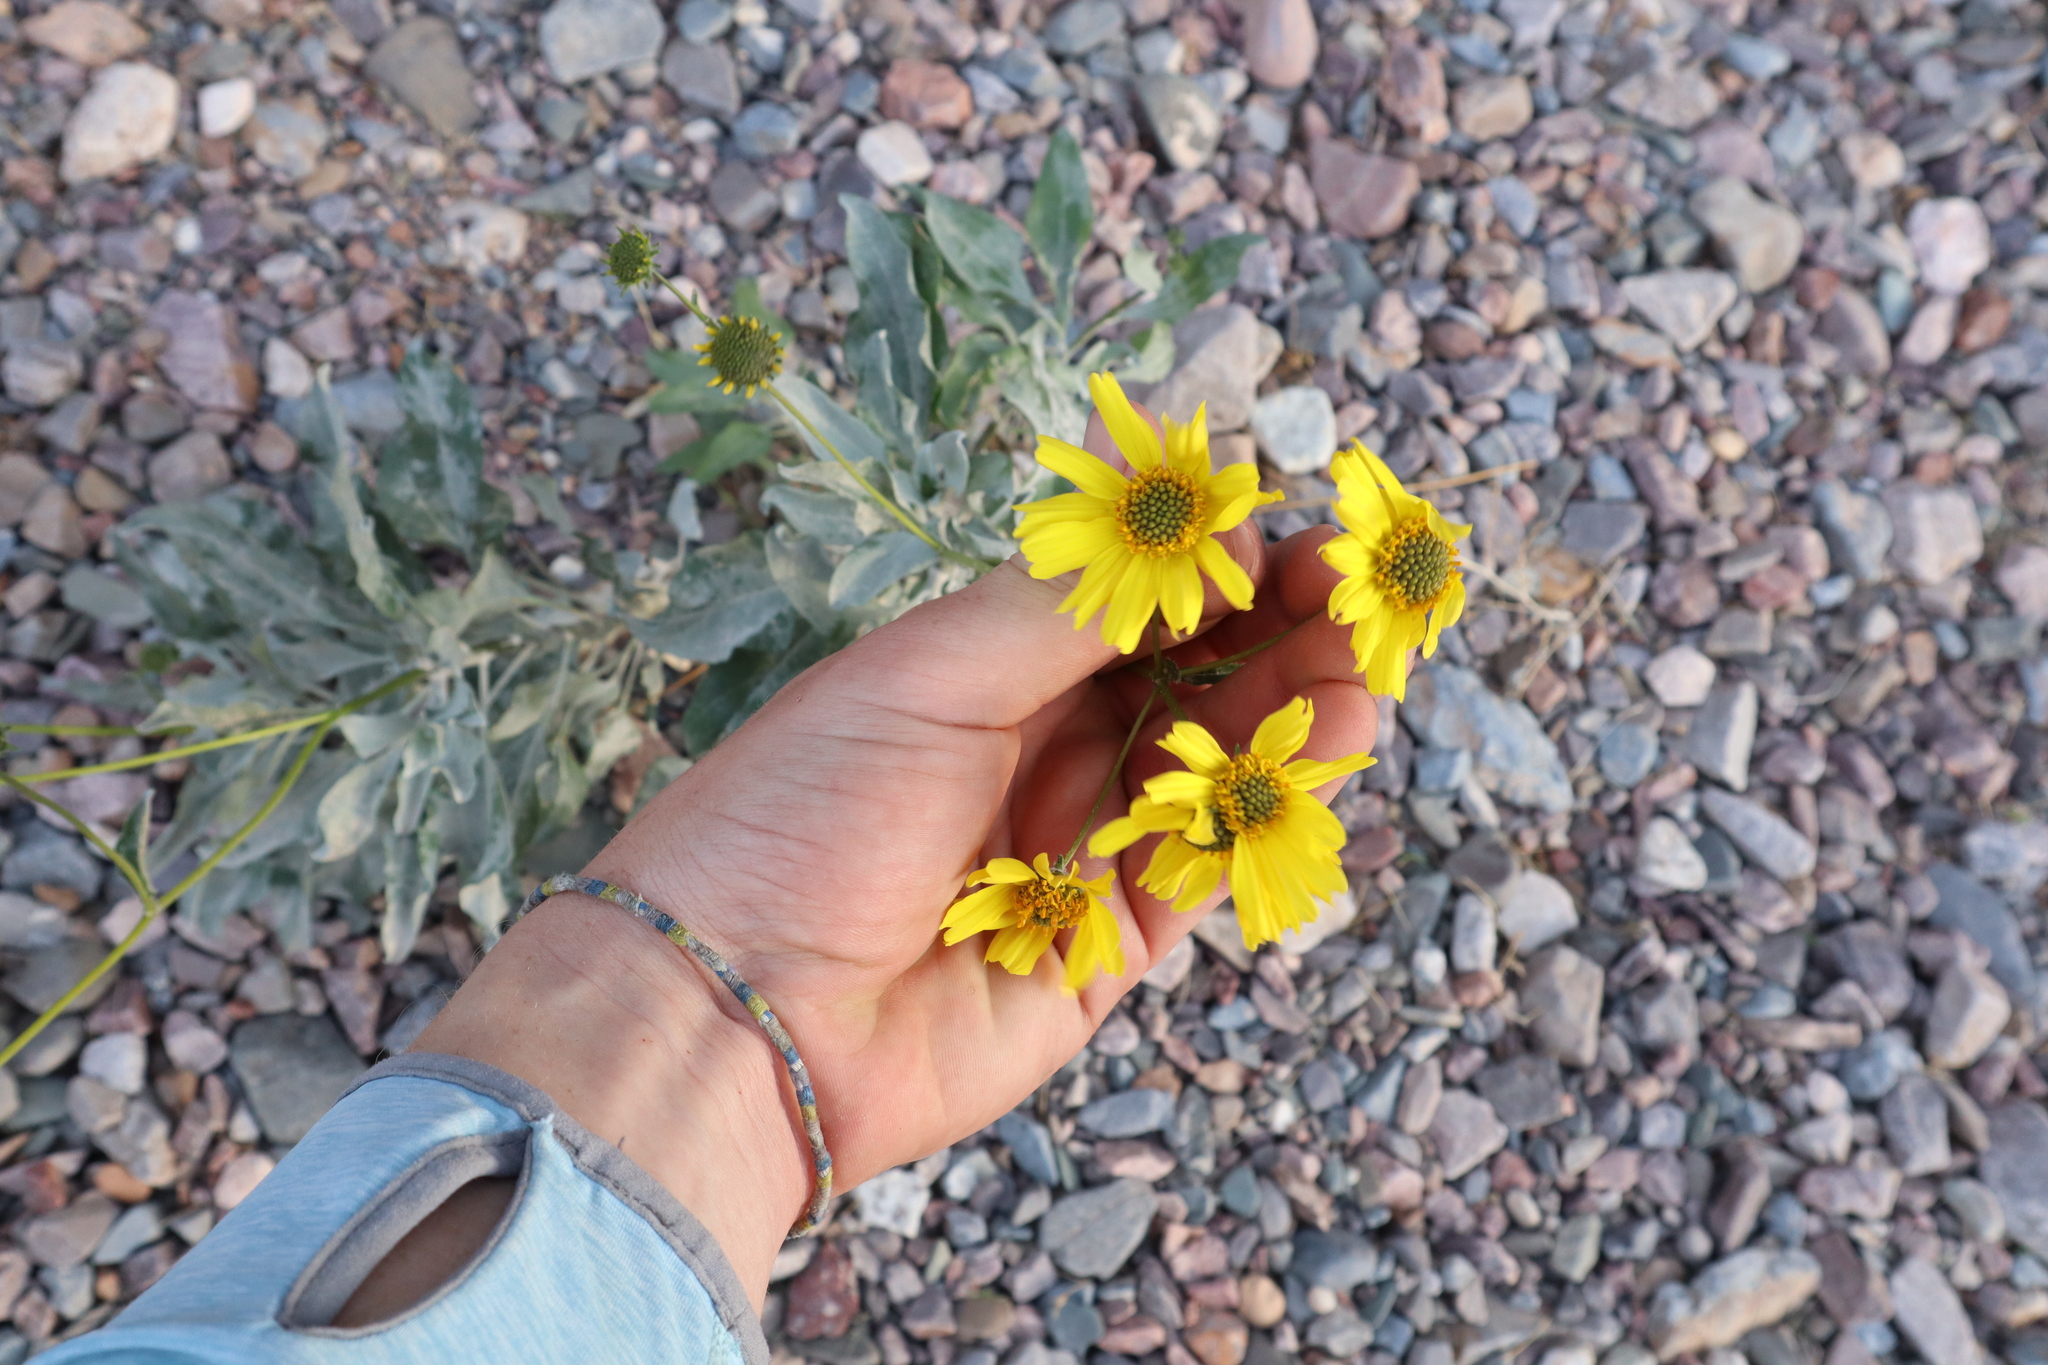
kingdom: Plantae
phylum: Tracheophyta
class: Magnoliopsida
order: Asterales
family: Asteraceae
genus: Encelia
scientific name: Encelia farinosa
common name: Brittlebush
